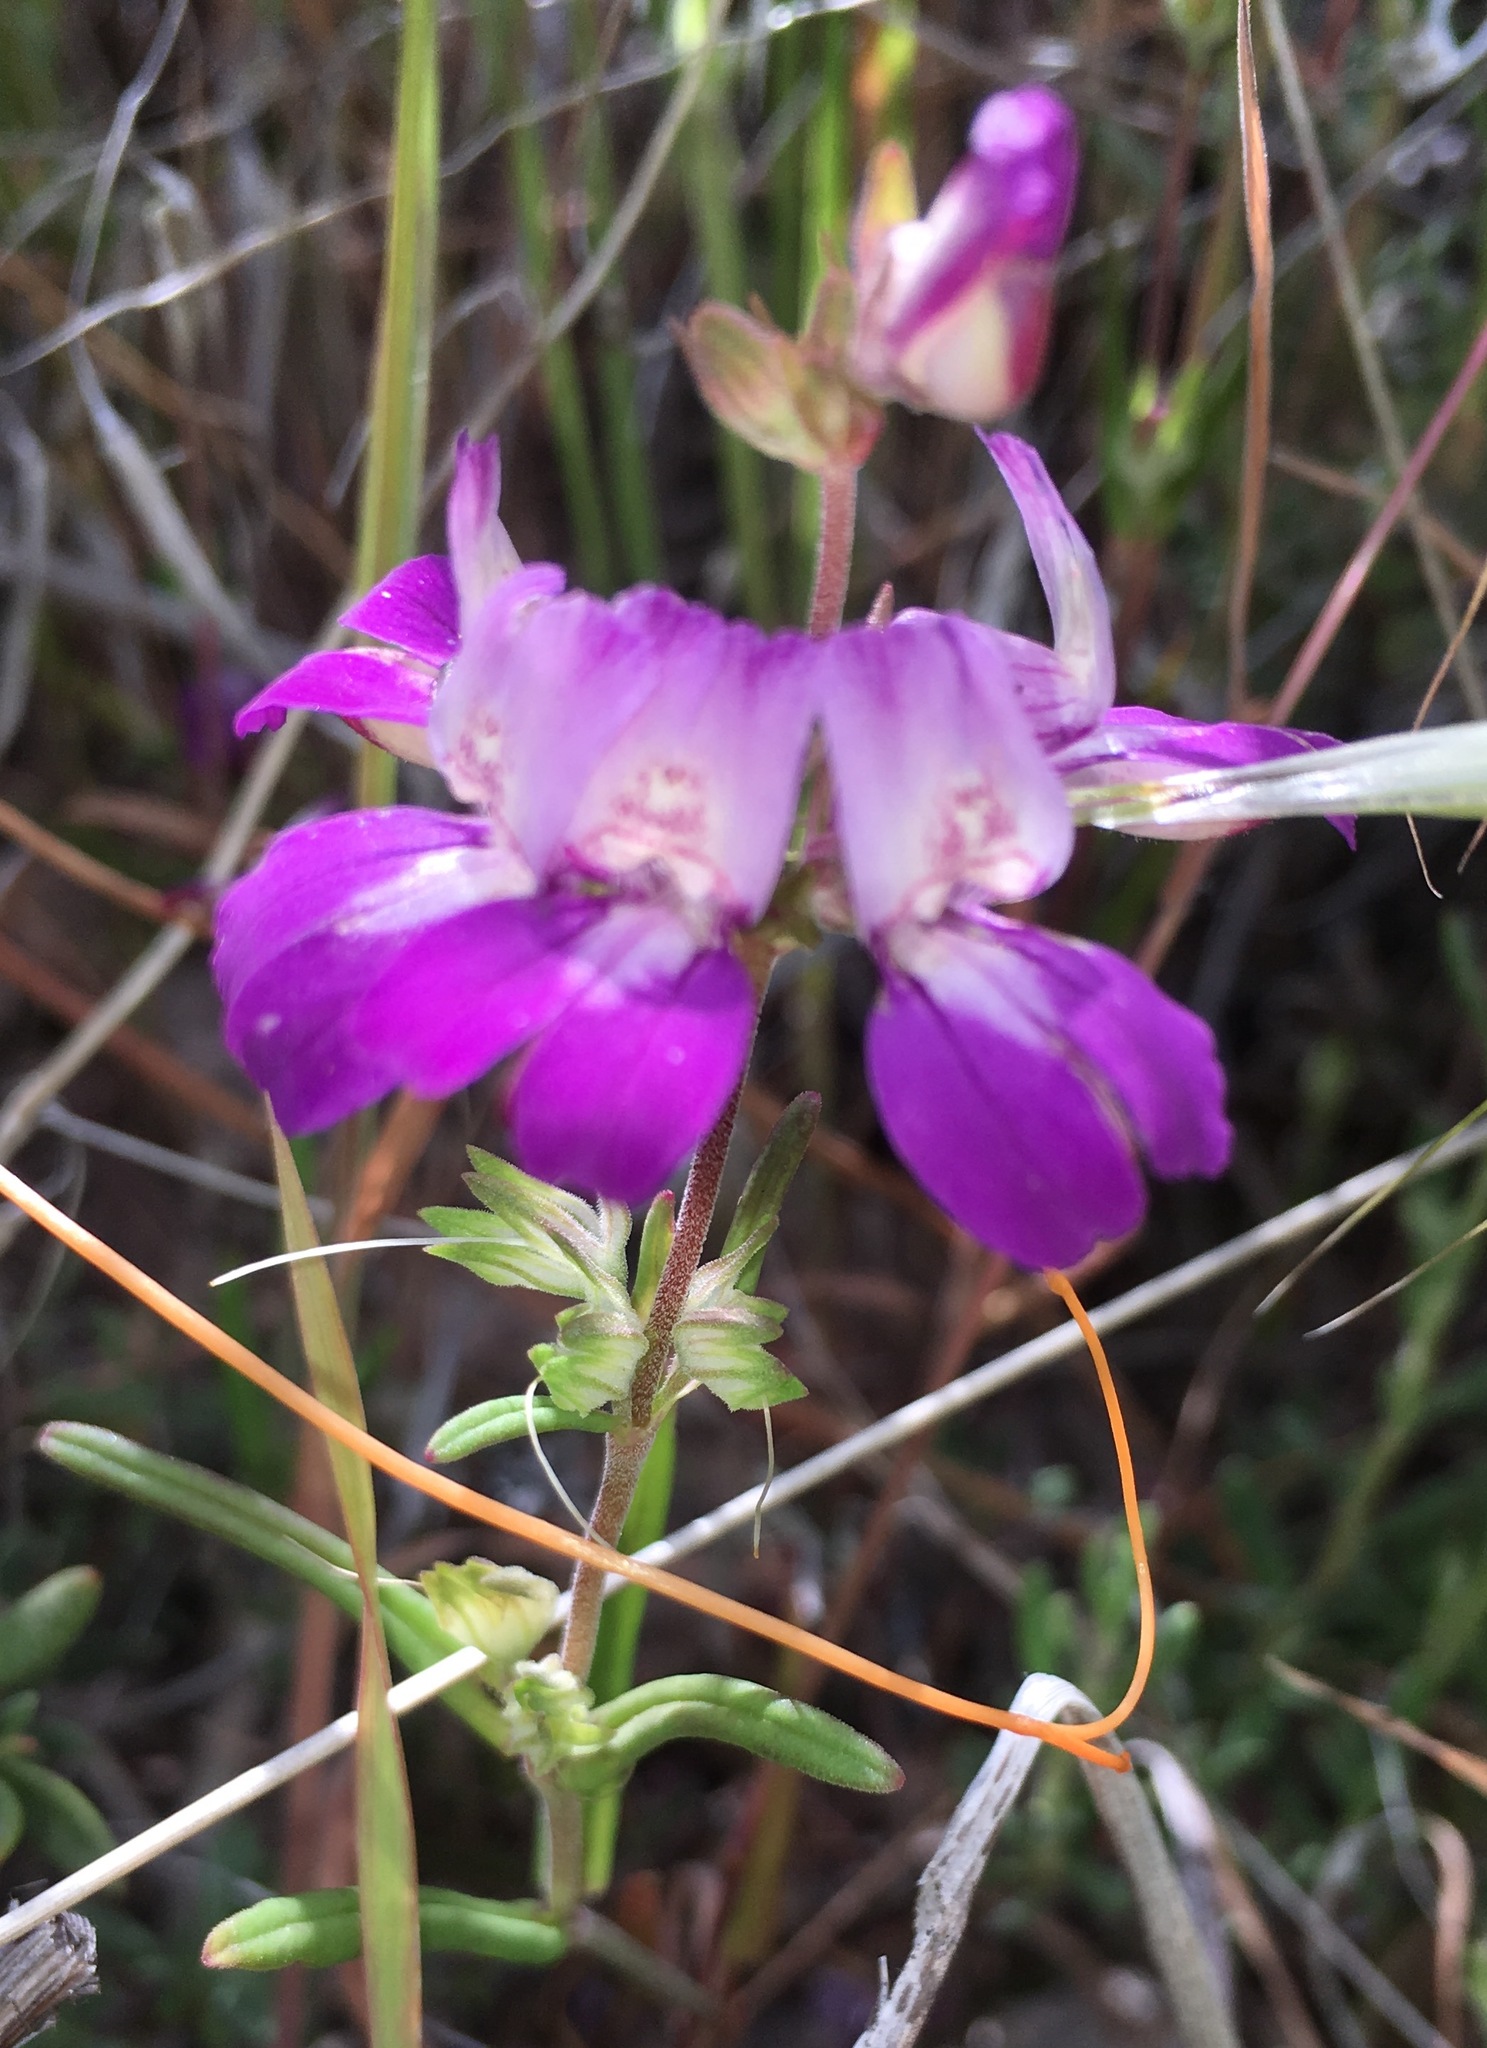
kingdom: Plantae
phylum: Tracheophyta
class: Magnoliopsida
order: Lamiales
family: Plantaginaceae
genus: Collinsia
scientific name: Collinsia heterophylla
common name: Chinese-houses
